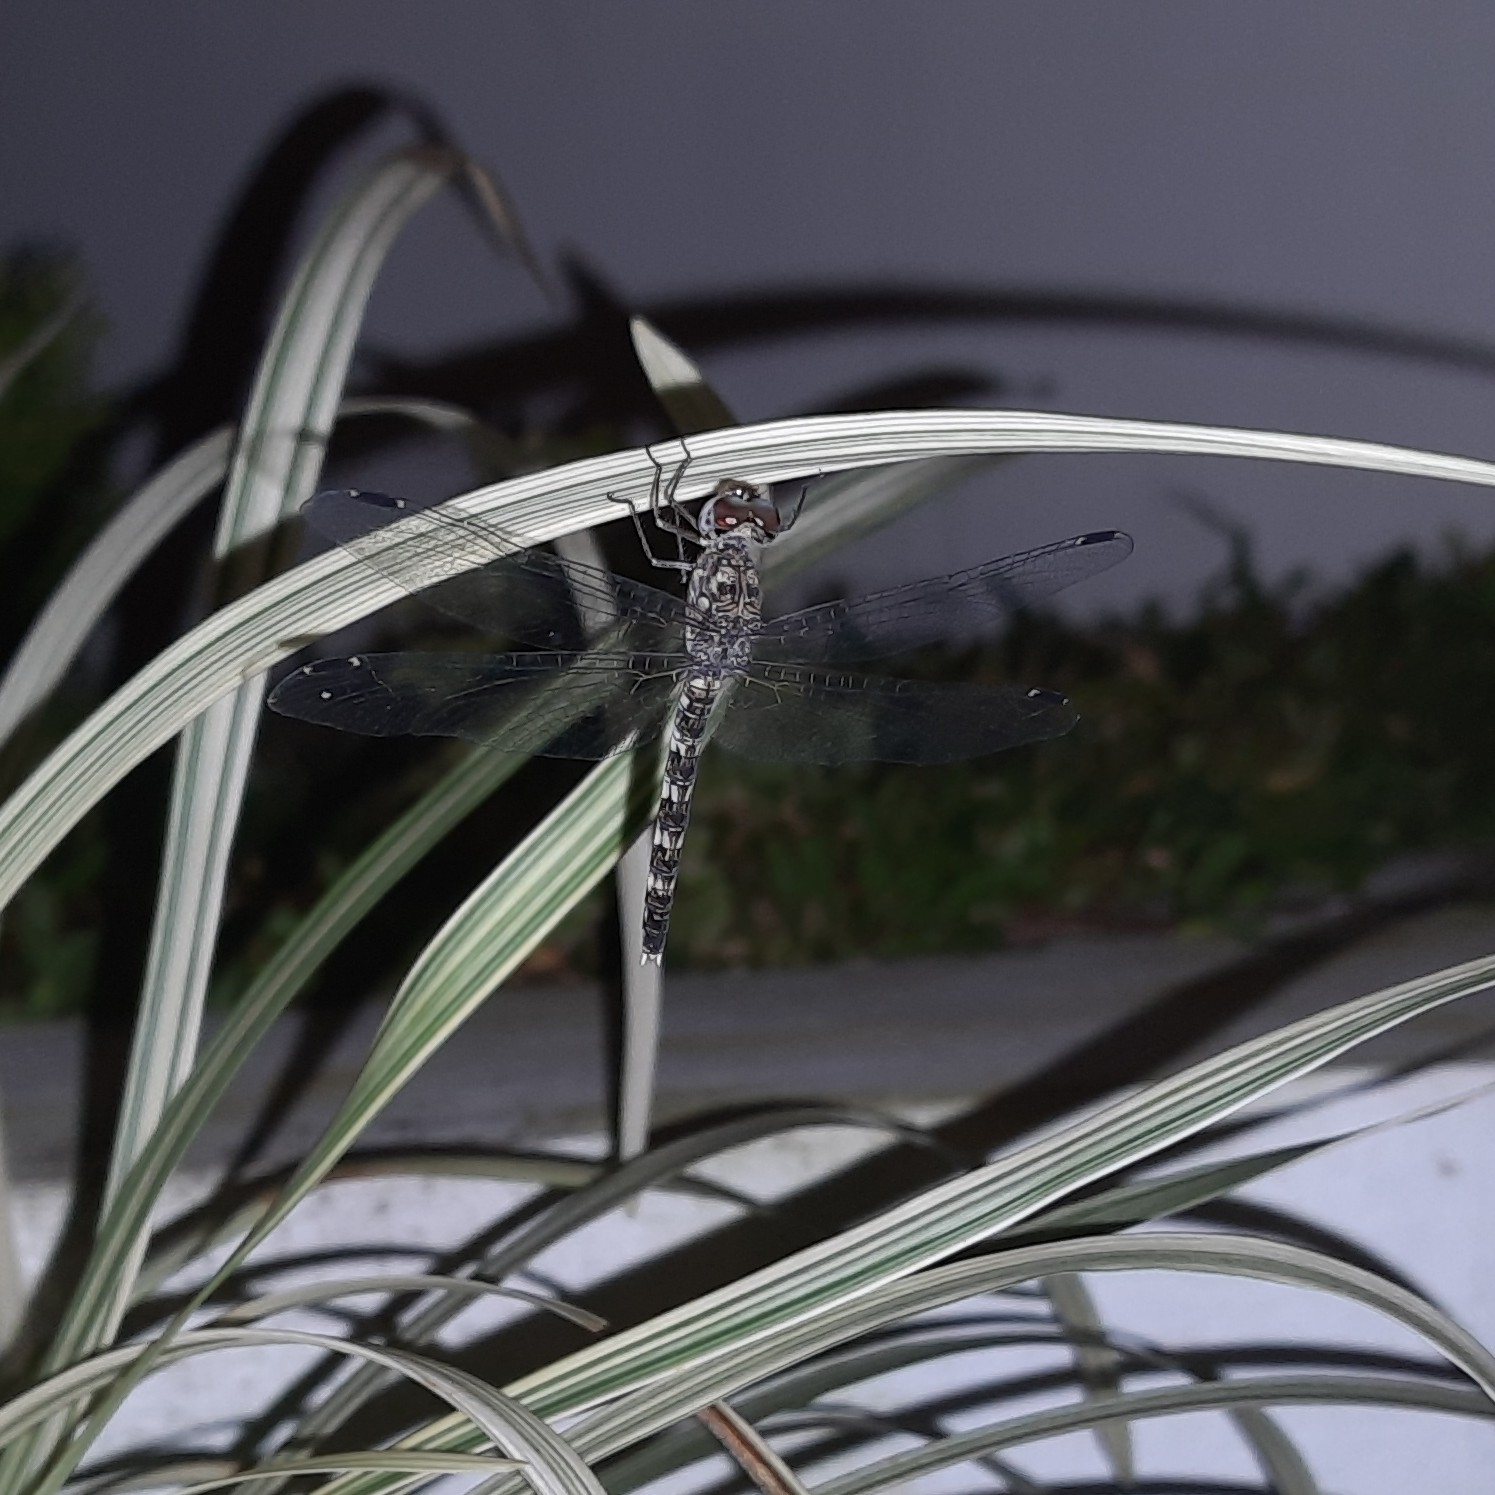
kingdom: Animalia
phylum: Arthropoda
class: Insecta
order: Odonata
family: Libellulidae
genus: Bradinopyga
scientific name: Bradinopyga geminata
